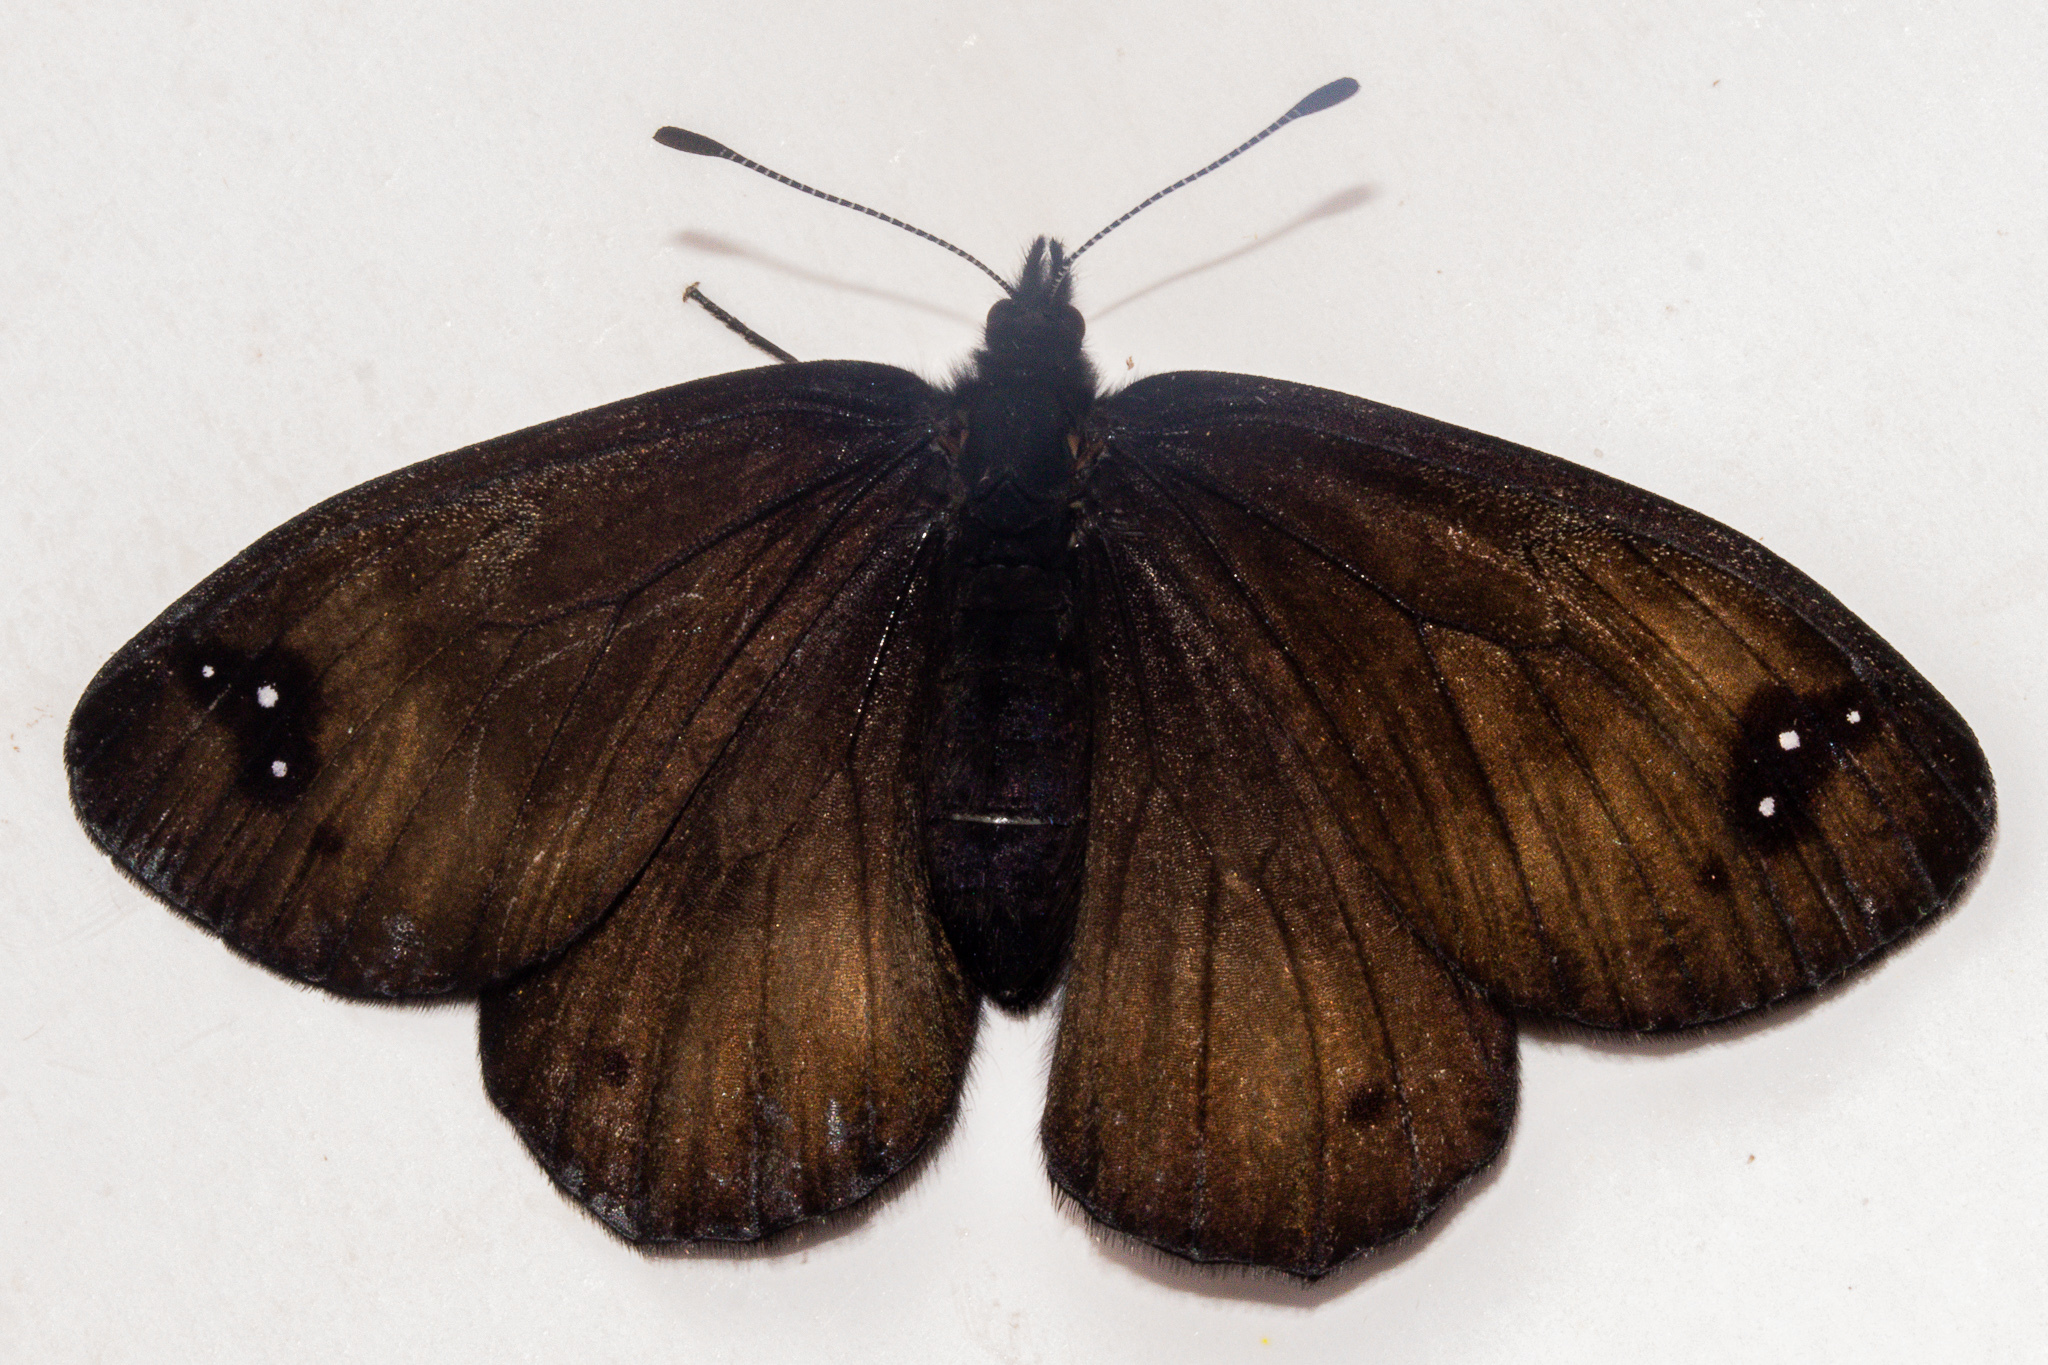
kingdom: Animalia
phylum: Arthropoda
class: Insecta
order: Lepidoptera
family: Nymphalidae
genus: Erebia
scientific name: Erebia Percnodaimon merula
